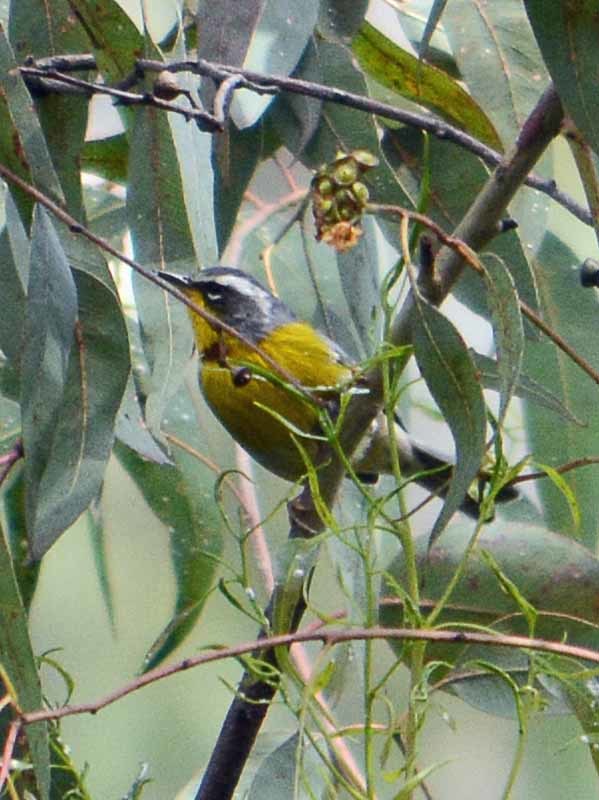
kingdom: Animalia
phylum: Chordata
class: Aves
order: Passeriformes
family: Parulidae
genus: Oreothlypis
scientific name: Oreothlypis superciliosa
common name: Crescent-chested warbler
